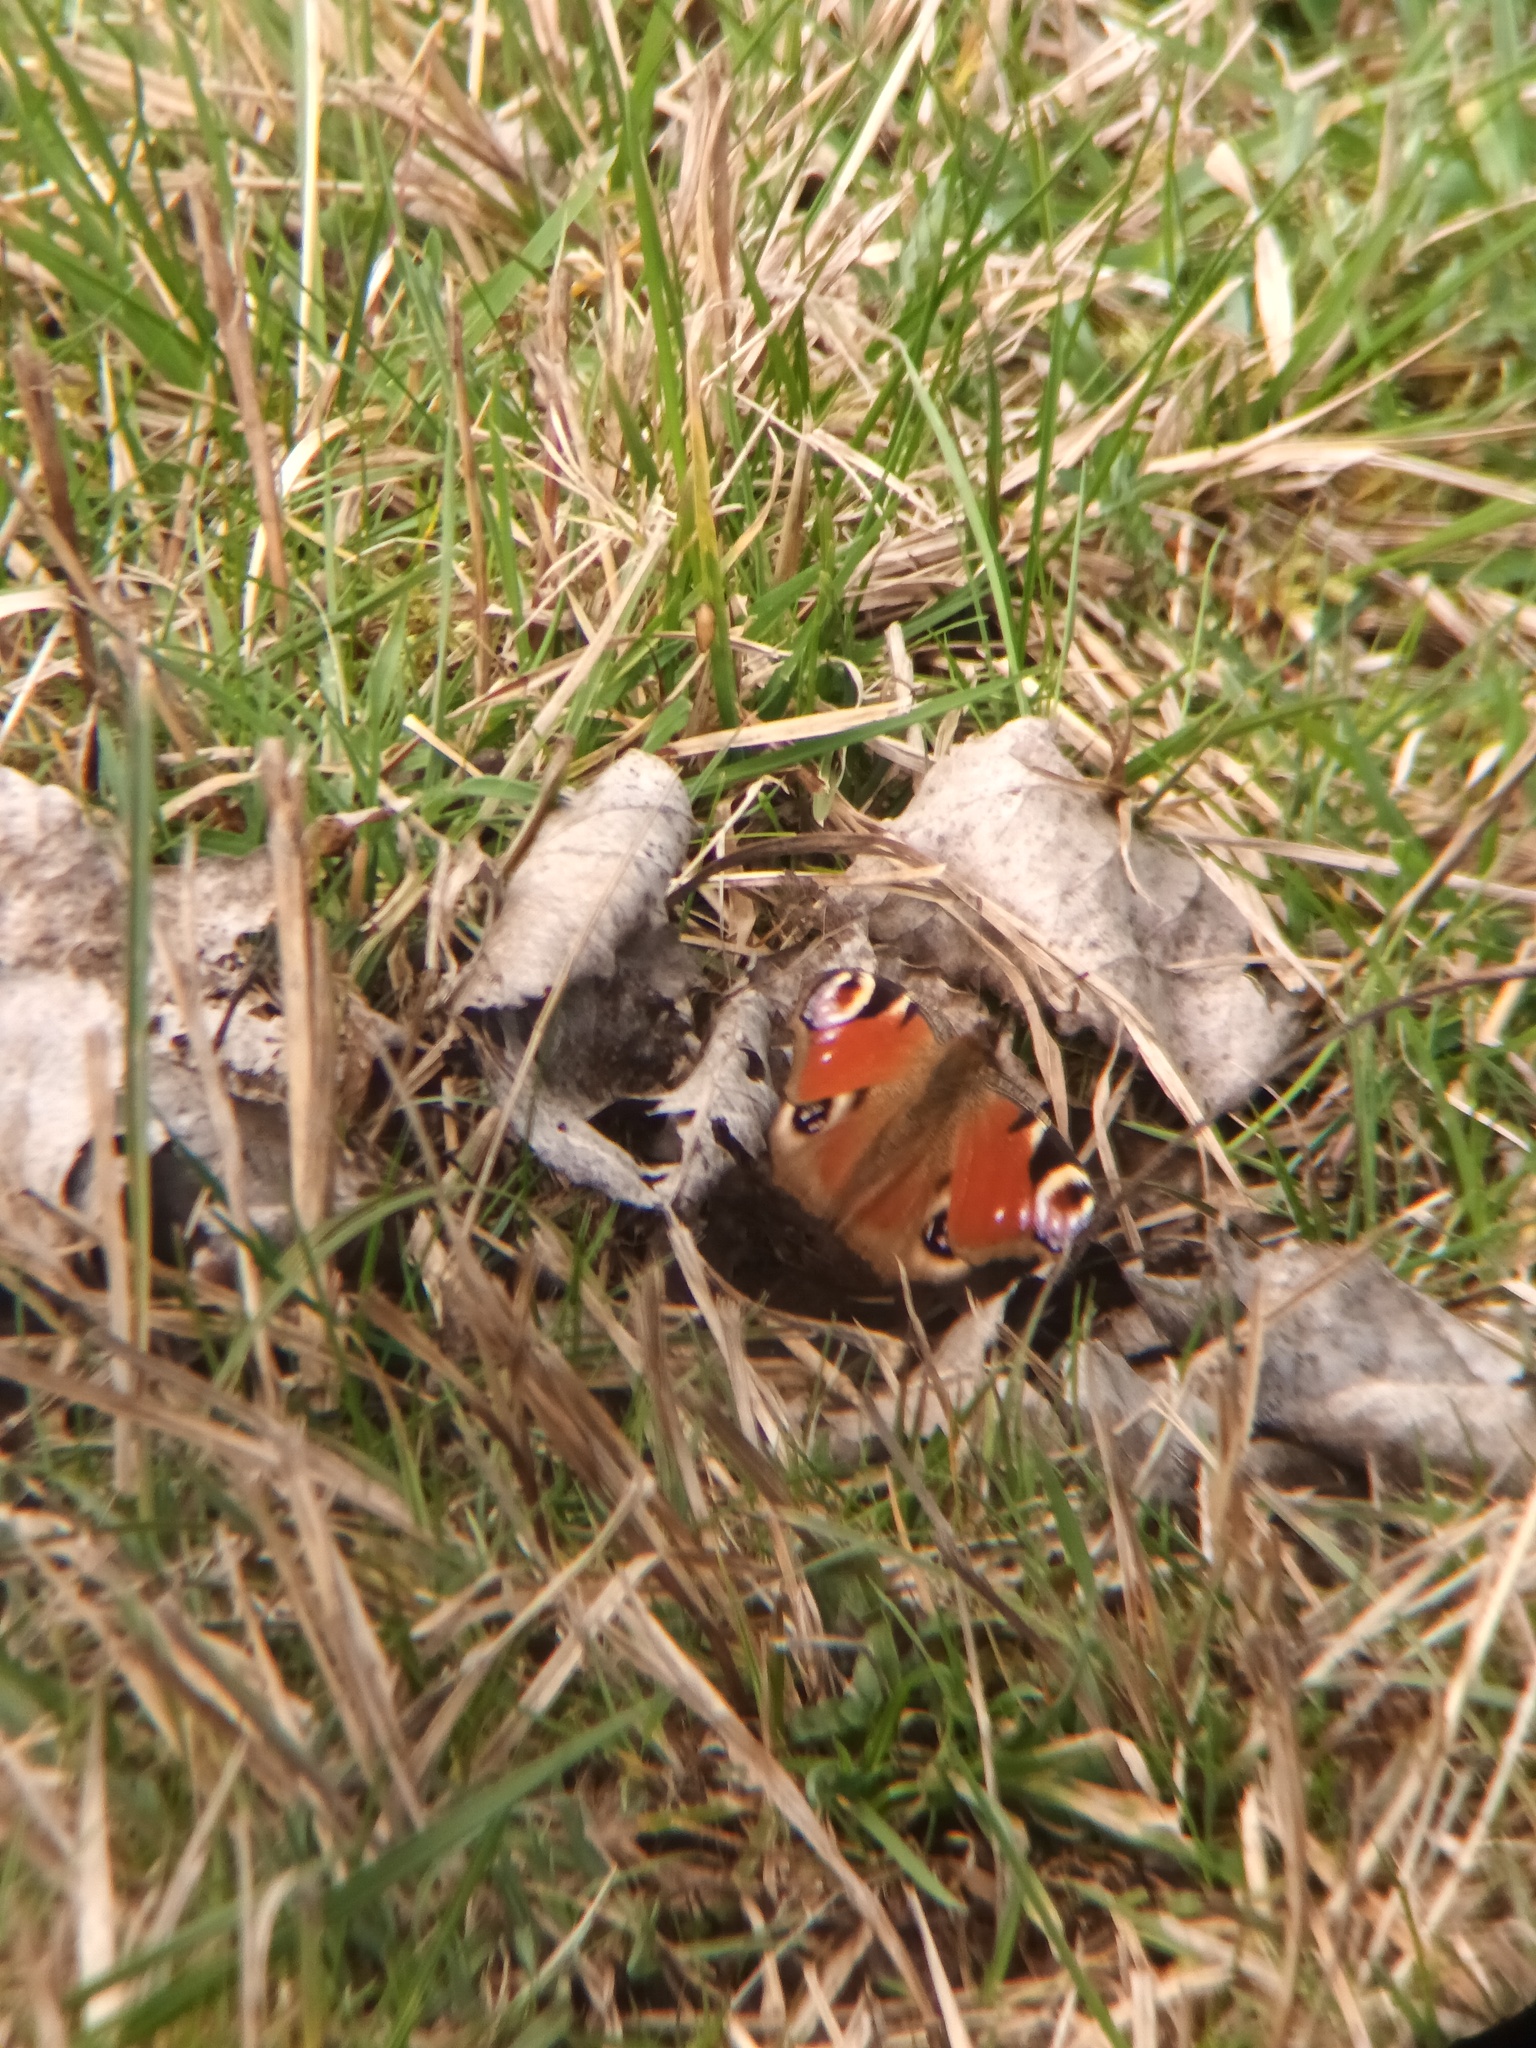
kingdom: Animalia
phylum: Arthropoda
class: Insecta
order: Lepidoptera
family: Nymphalidae
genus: Aglais
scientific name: Aglais io
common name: Peacock
